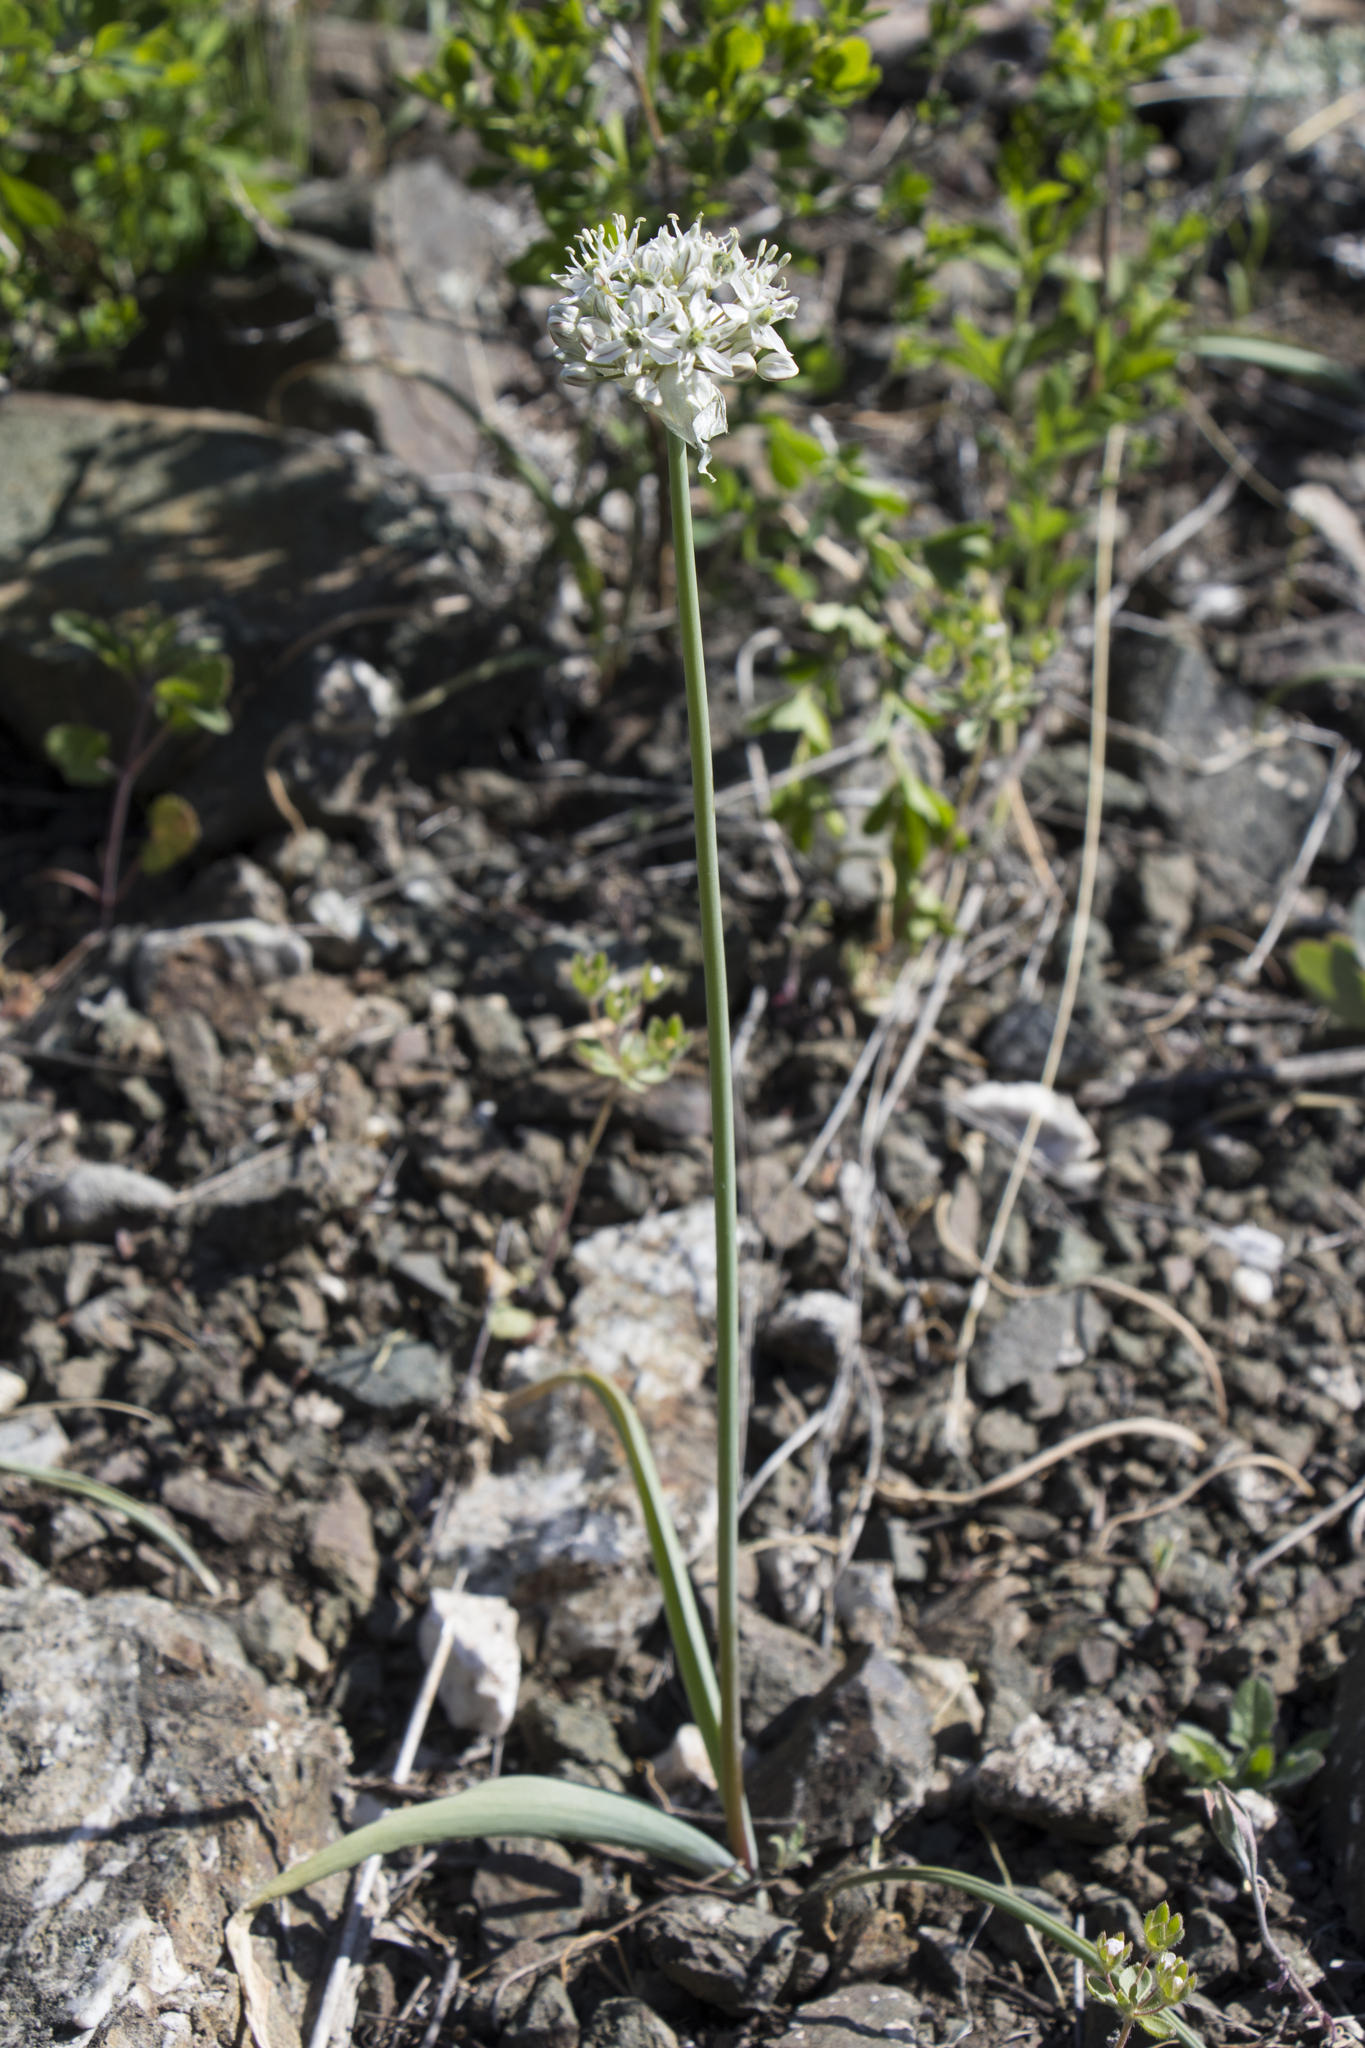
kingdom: Plantae
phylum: Tracheophyta
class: Liliopsida
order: Asparagales
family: Amaryllidaceae
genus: Allium
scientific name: Allium tulipifolium
